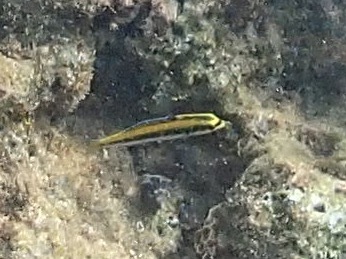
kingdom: Animalia
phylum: Chordata
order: Perciformes
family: Labridae
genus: Thalassoma
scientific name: Thalassoma bifasciatum
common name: Bluehead wrasse
